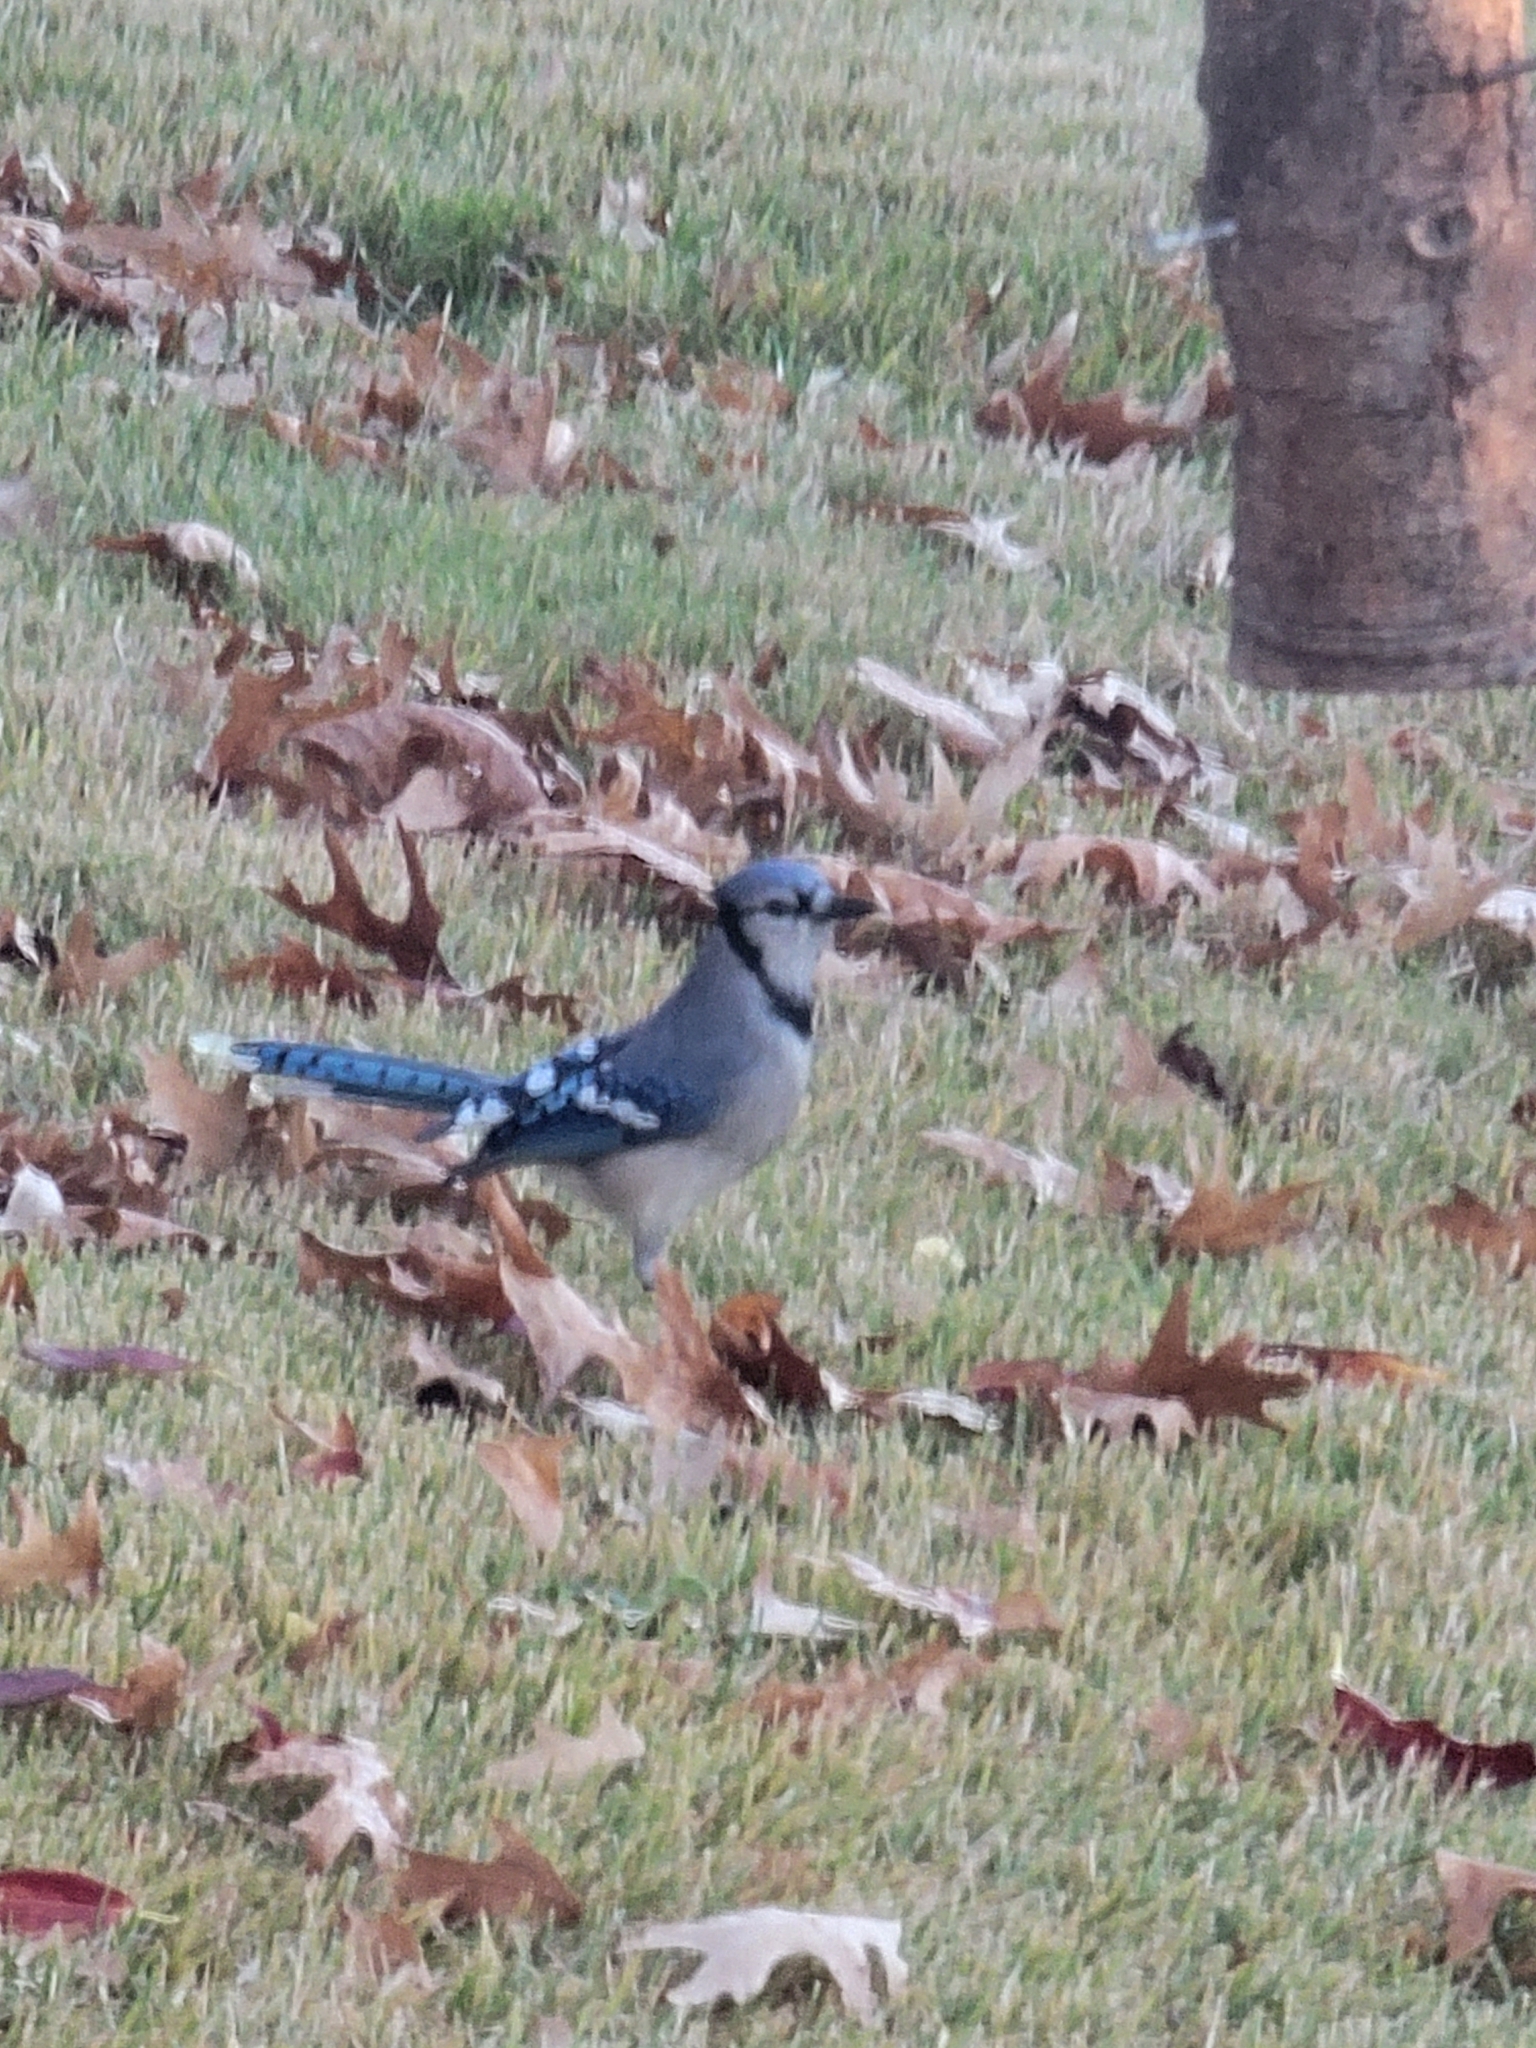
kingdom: Animalia
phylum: Chordata
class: Aves
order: Passeriformes
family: Corvidae
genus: Cyanocitta
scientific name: Cyanocitta cristata
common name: Blue jay
